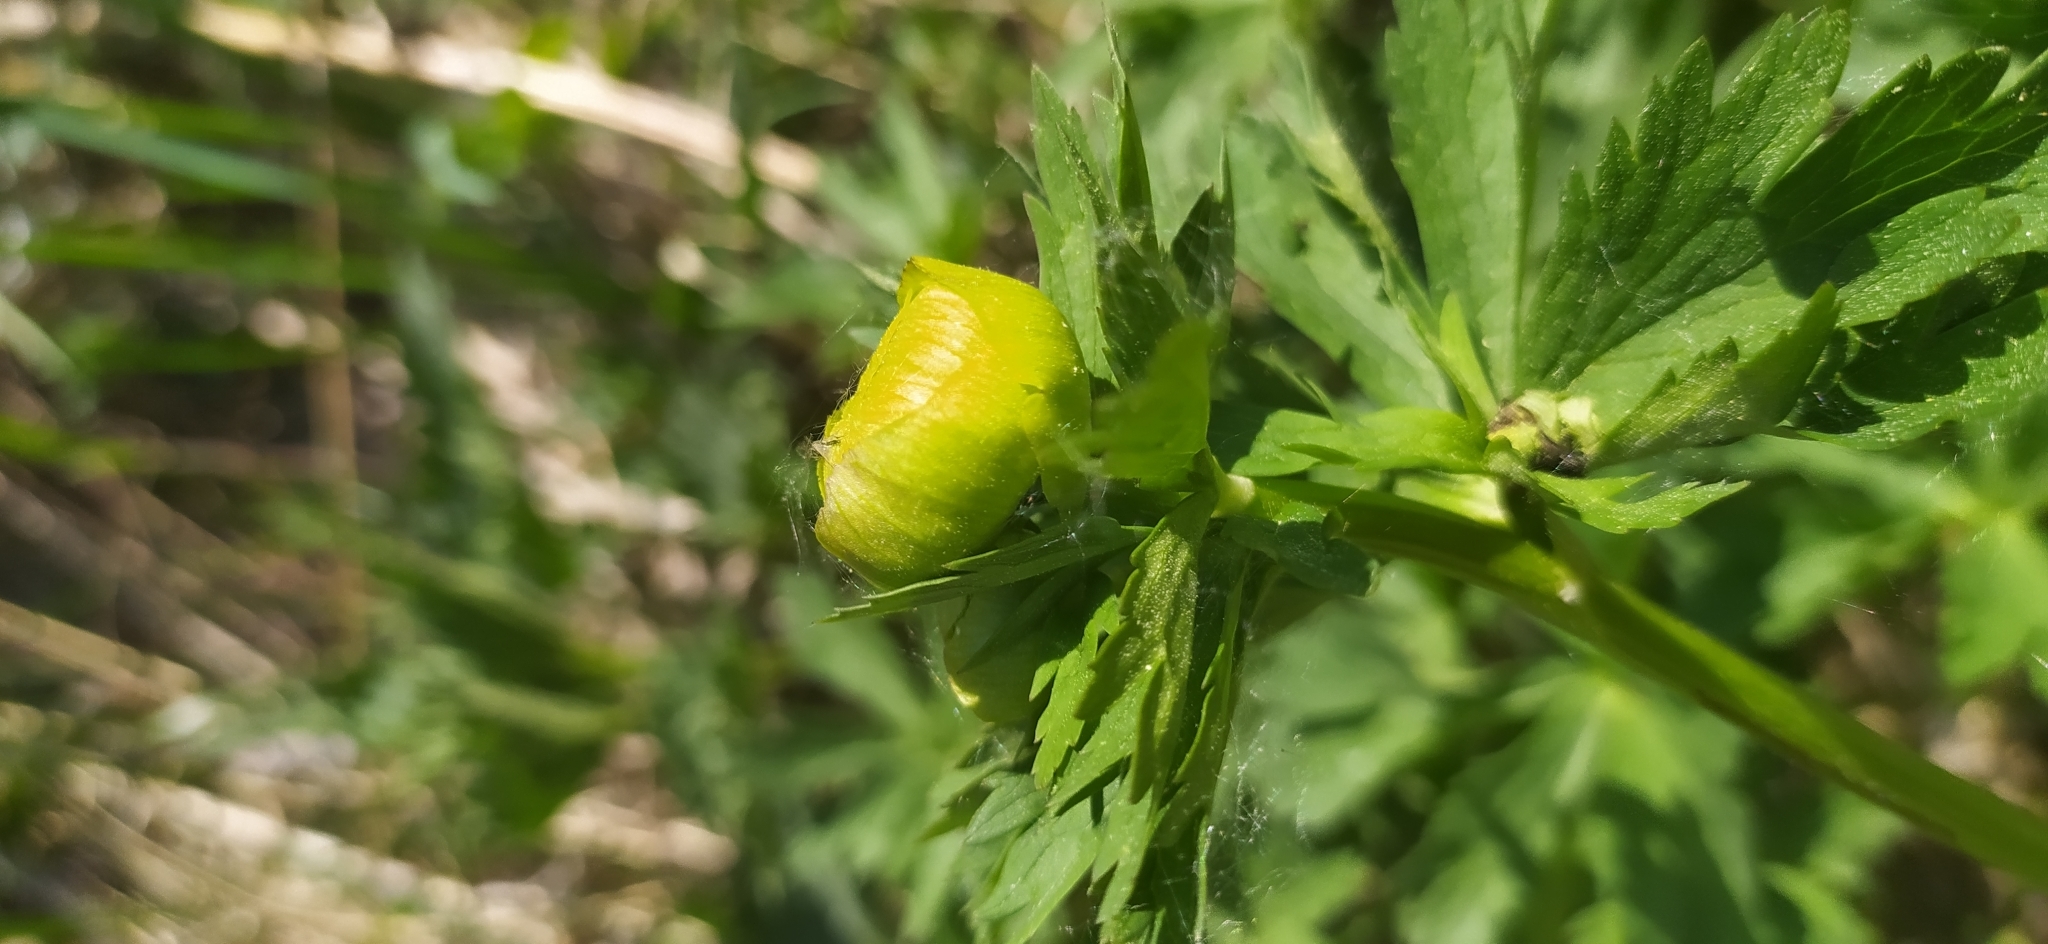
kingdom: Plantae
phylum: Tracheophyta
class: Magnoliopsida
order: Ranunculales
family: Ranunculaceae
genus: Trollius
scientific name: Trollius europaeus
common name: European globeflower
